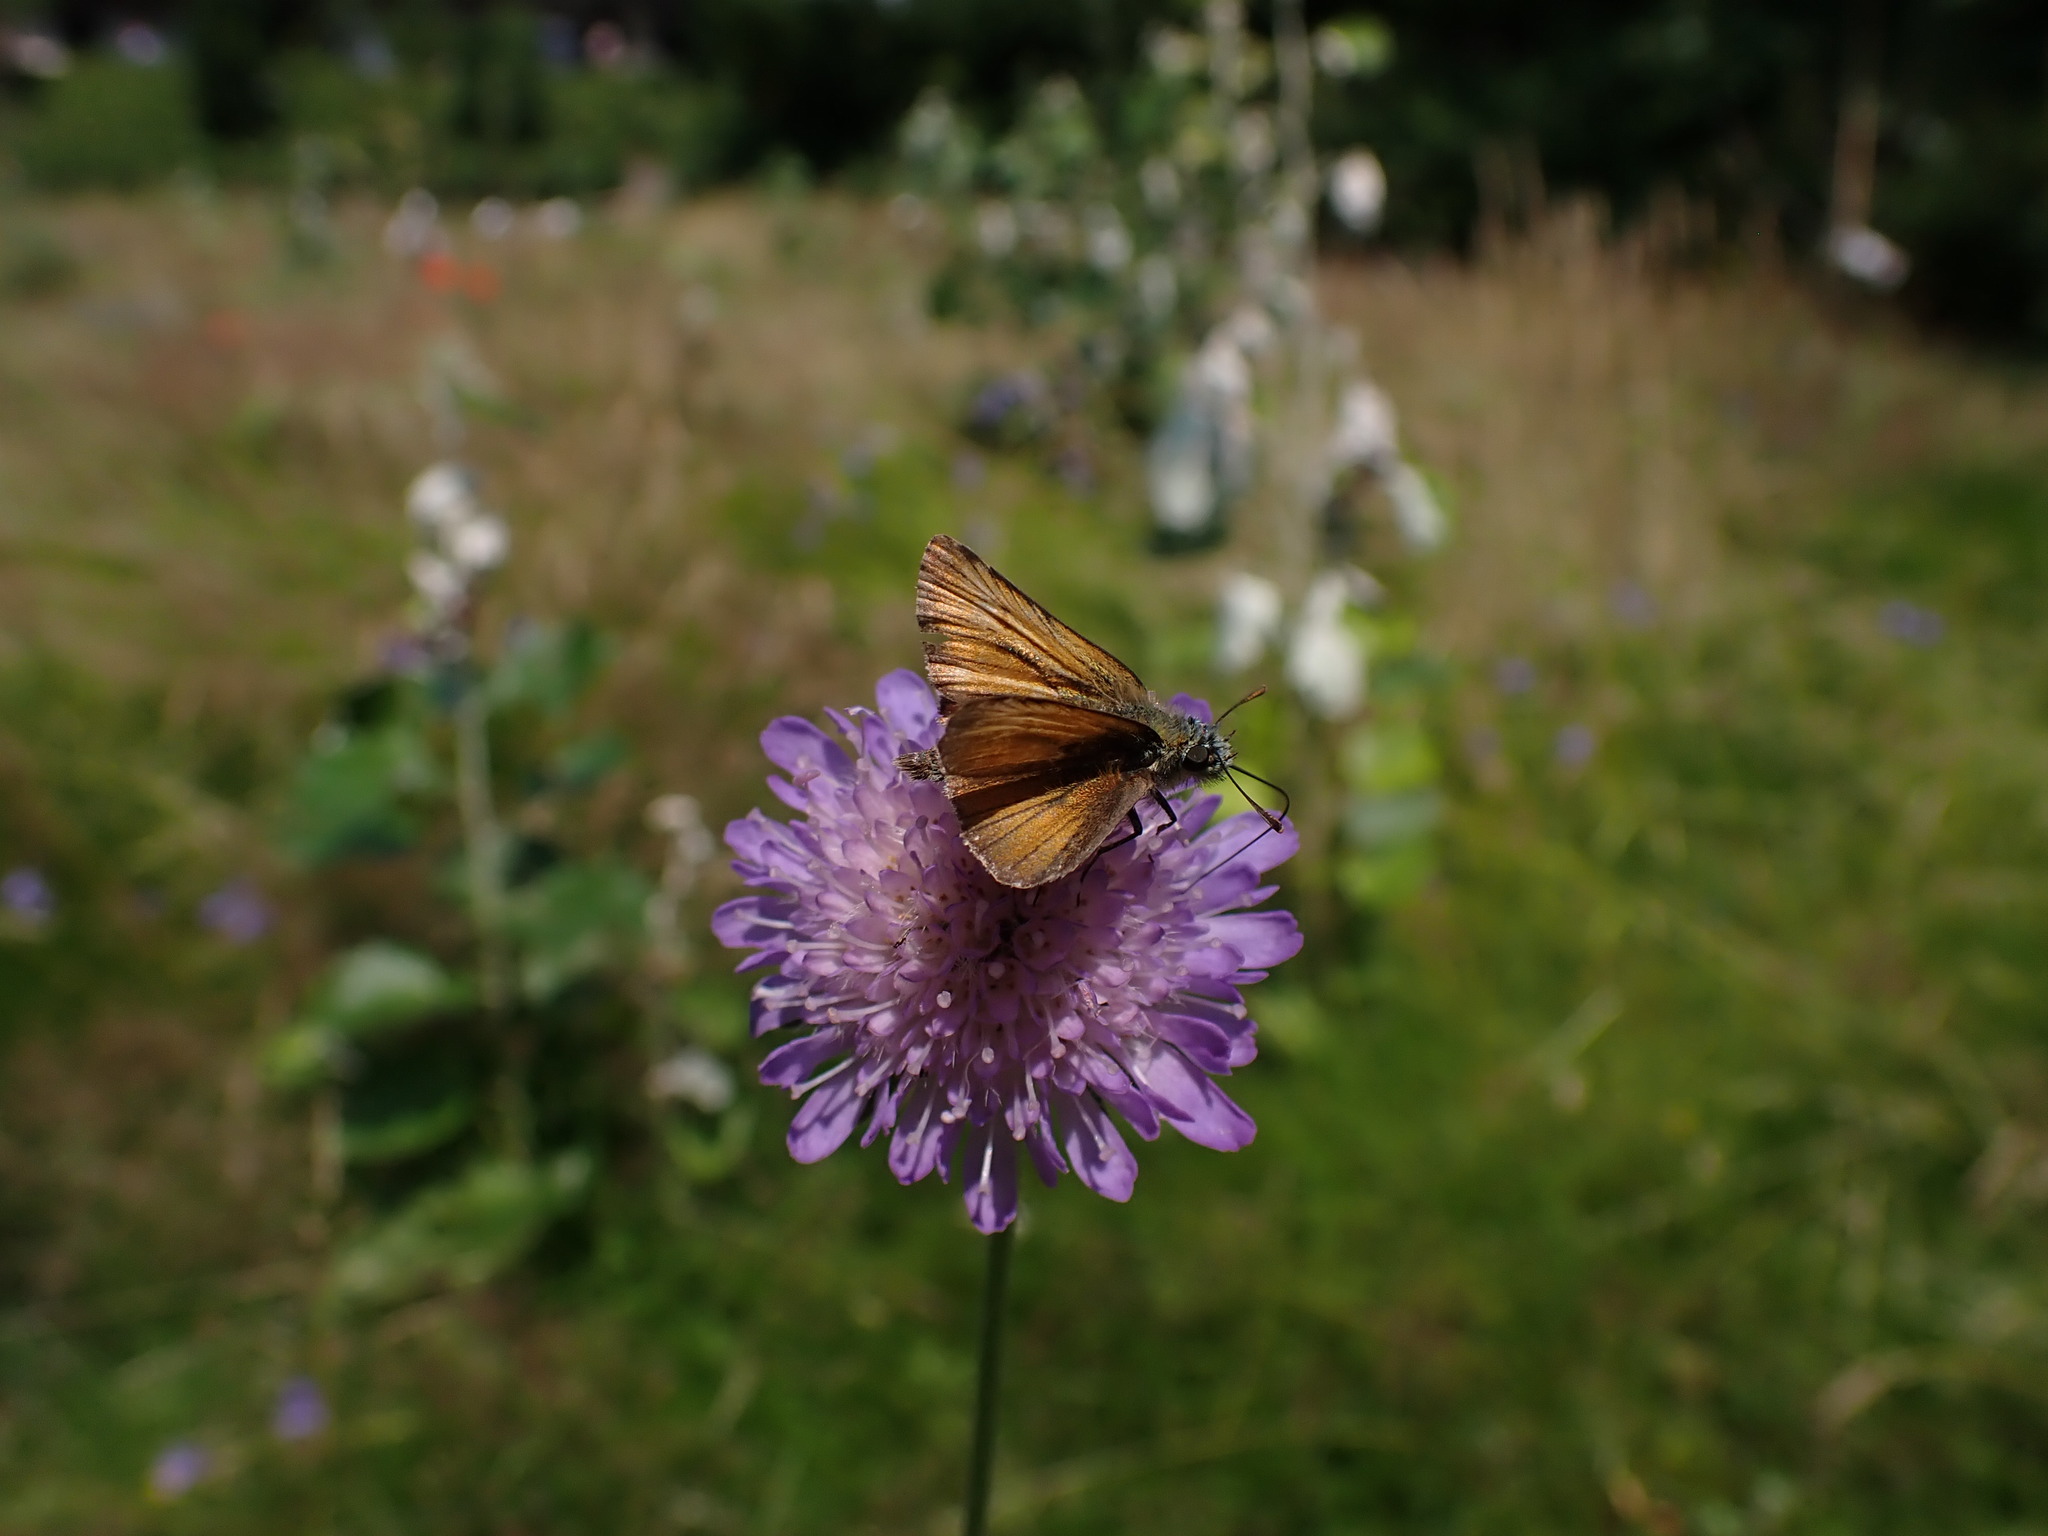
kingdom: Animalia
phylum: Arthropoda
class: Insecta
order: Lepidoptera
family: Hesperiidae
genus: Thymelicus
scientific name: Thymelicus sylvestris
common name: Small skipper
